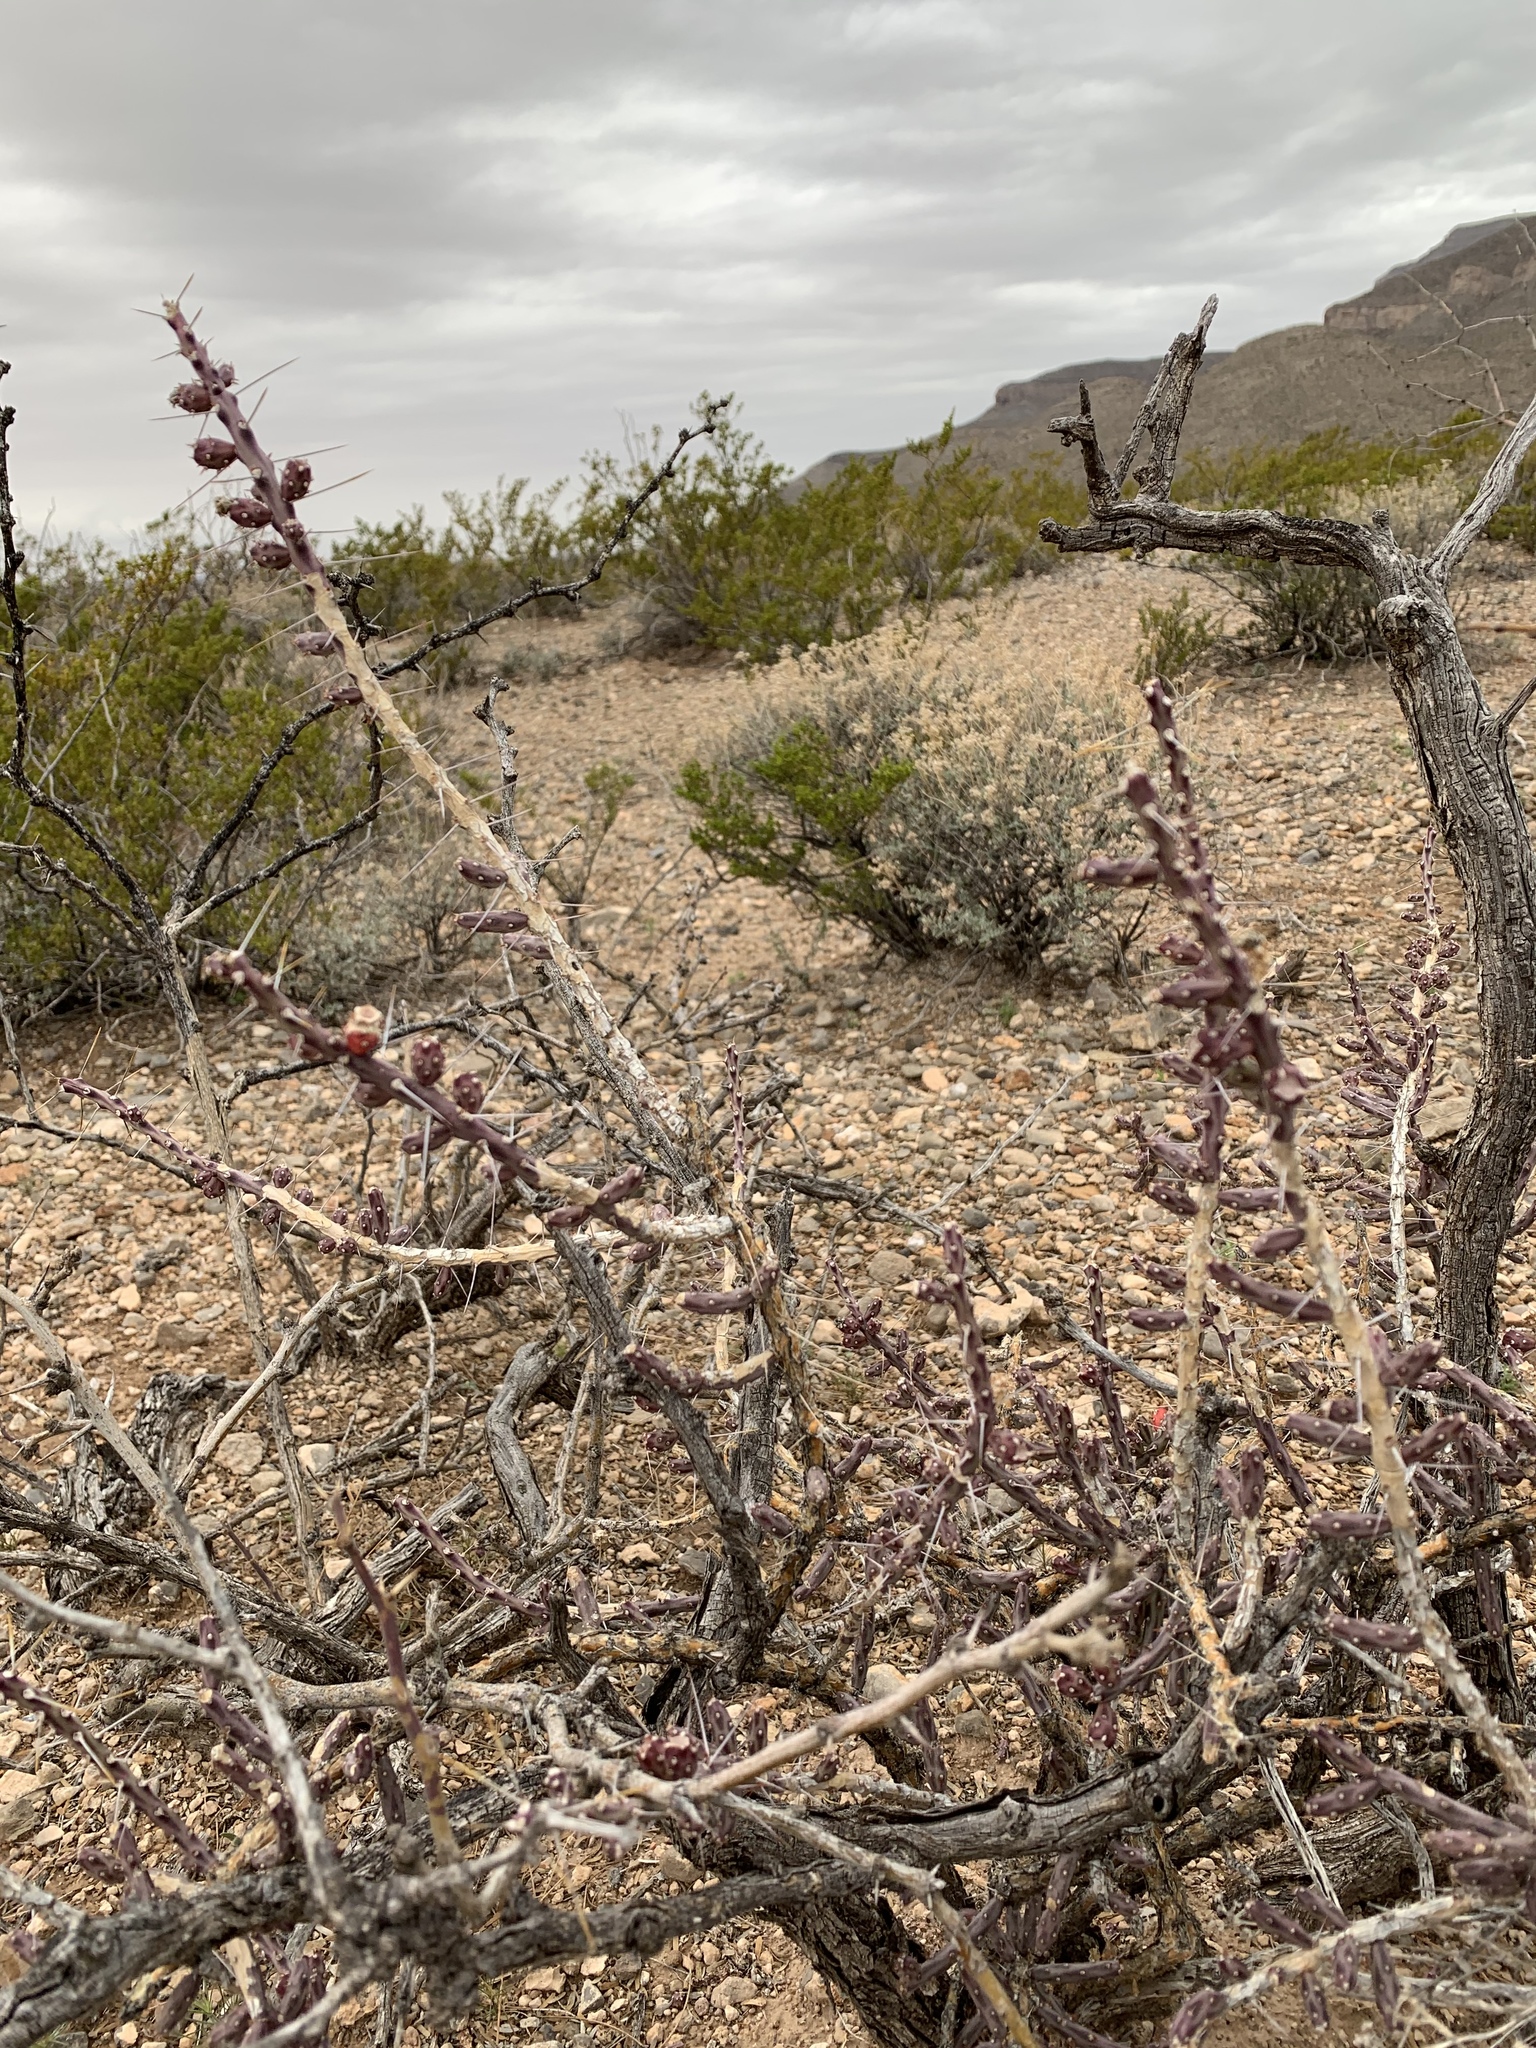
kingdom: Plantae
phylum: Tracheophyta
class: Magnoliopsida
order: Caryophyllales
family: Cactaceae
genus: Cylindropuntia
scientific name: Cylindropuntia leptocaulis
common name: Christmas cactus
